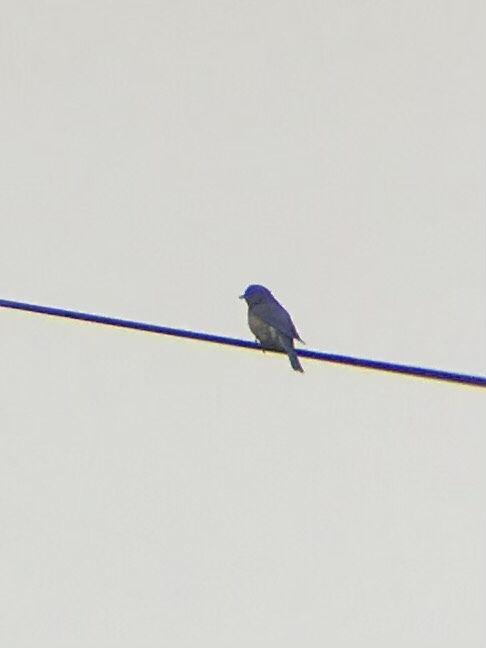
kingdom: Animalia
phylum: Chordata
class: Aves
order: Passeriformes
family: Turdidae
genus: Sialia
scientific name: Sialia sialis
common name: Eastern bluebird
